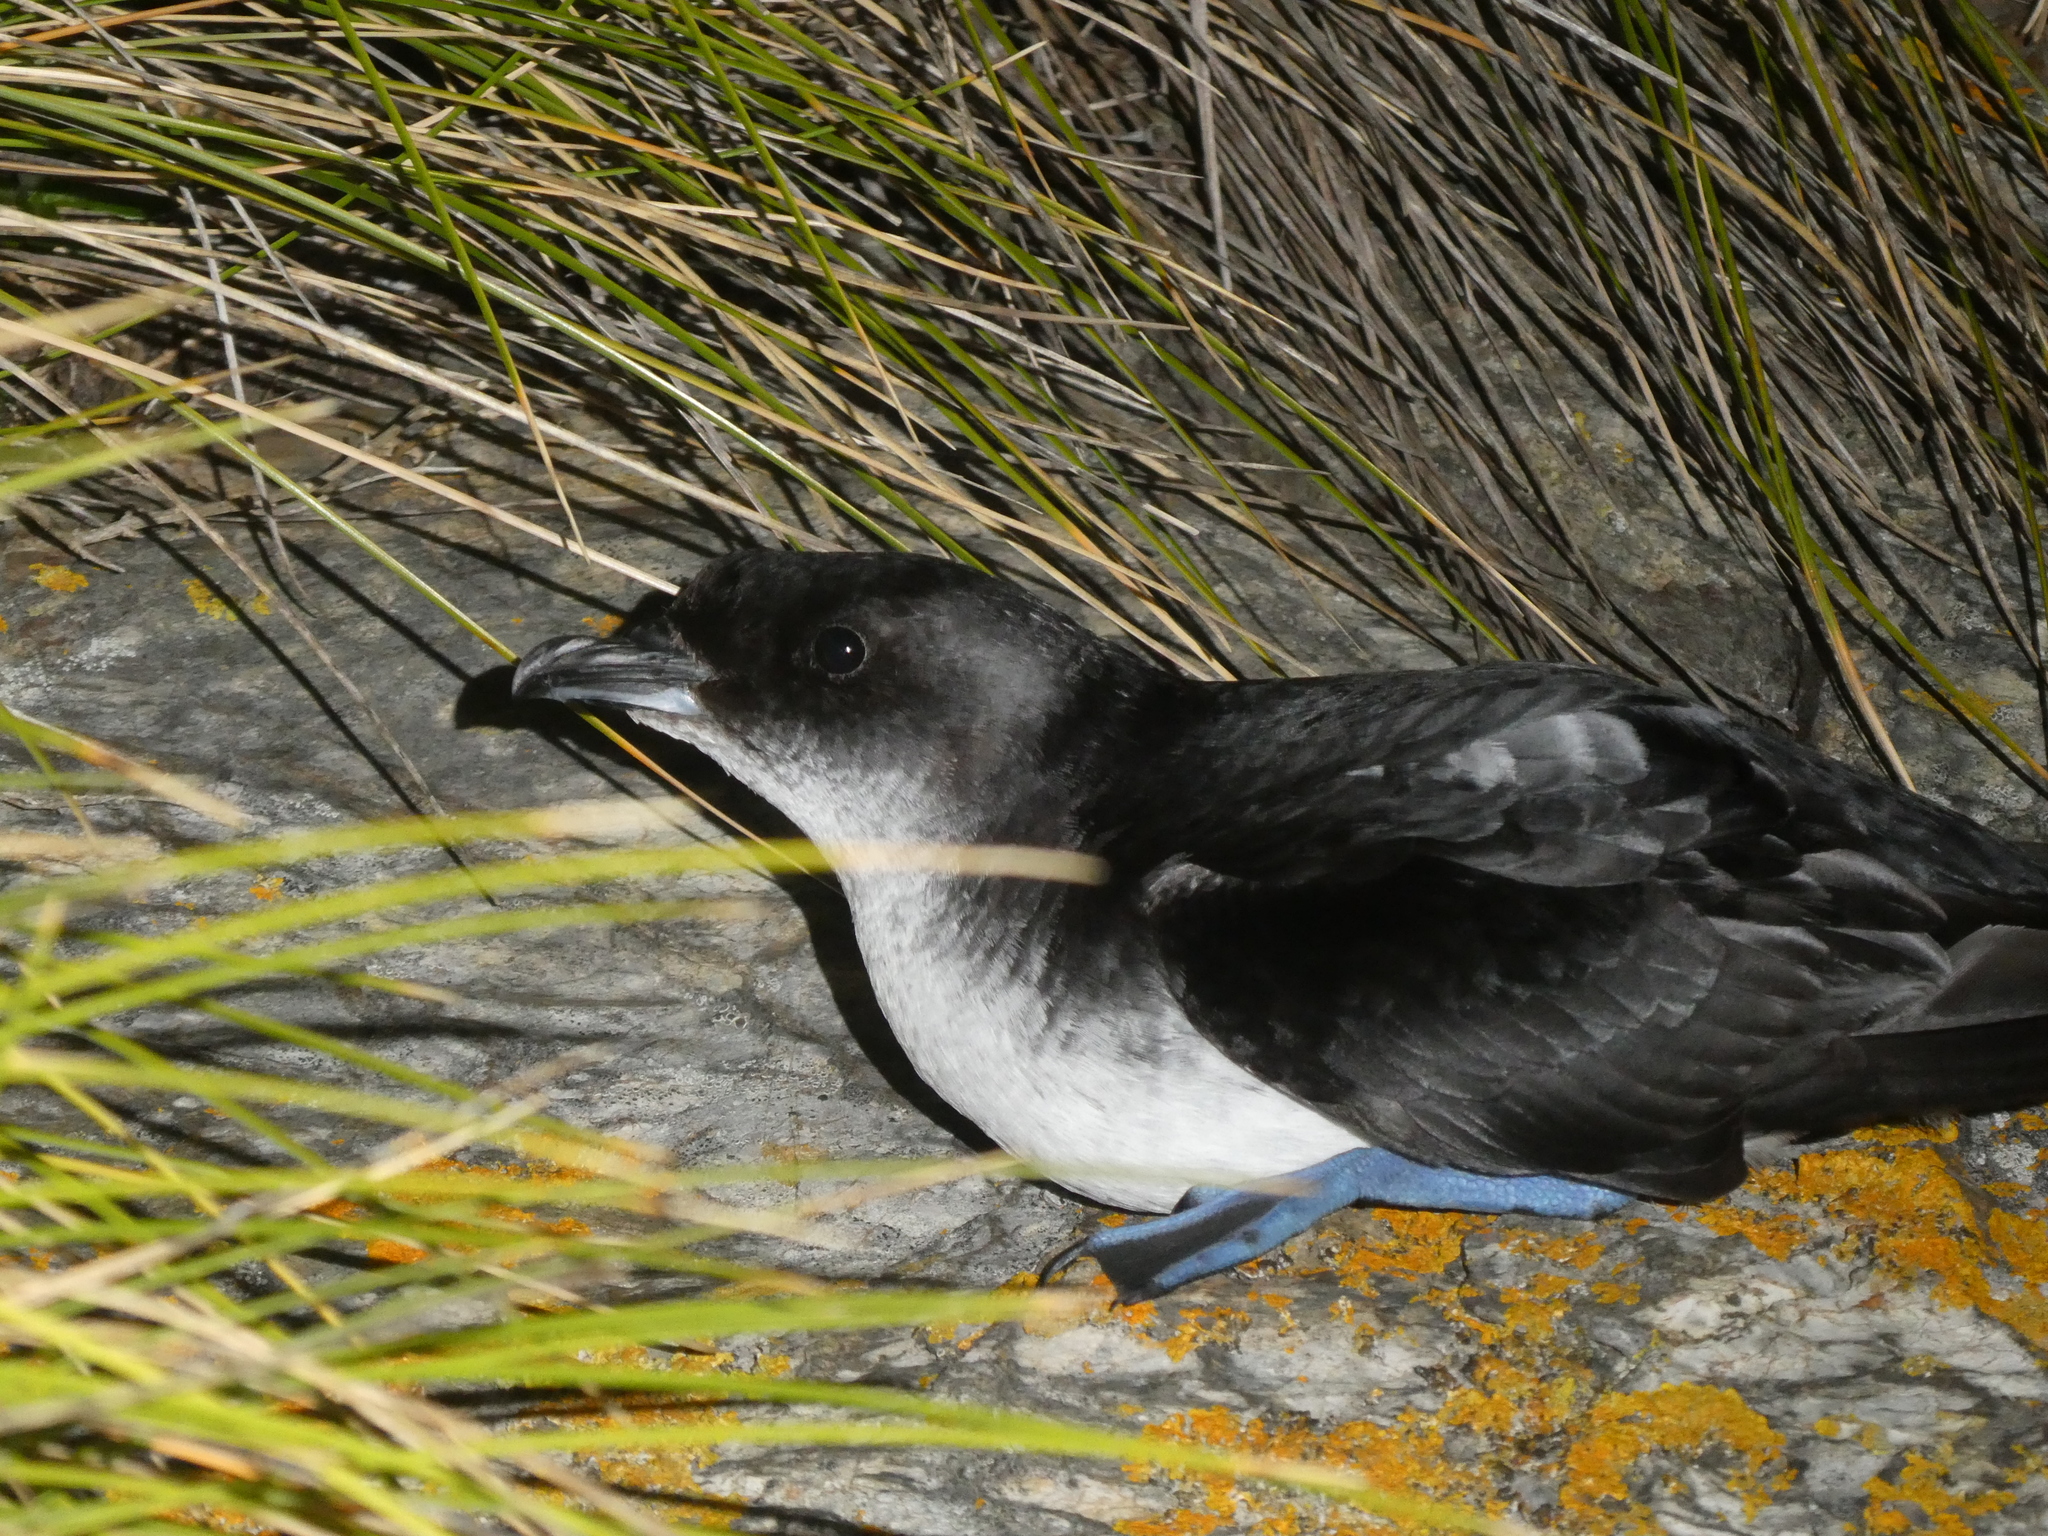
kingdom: Animalia
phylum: Chordata
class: Aves
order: Procellariiformes
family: Pelecanoididae
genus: Pelecanoides
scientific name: Pelecanoides urinatrix
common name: Common diving-petrel
